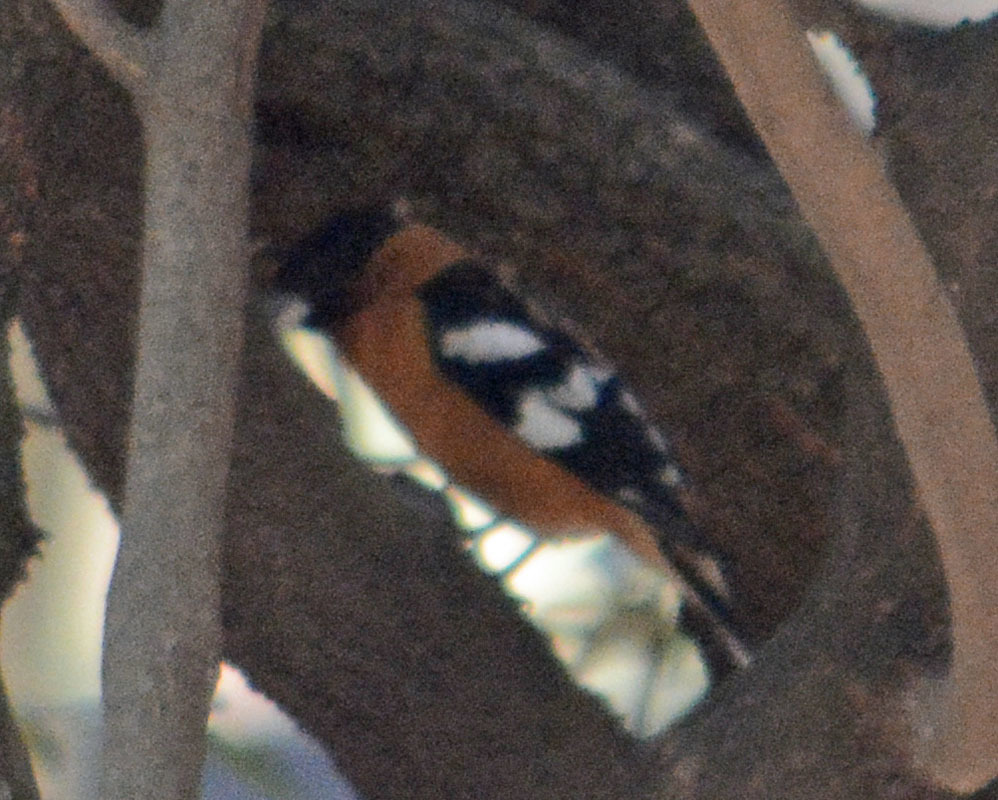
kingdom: Animalia
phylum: Chordata
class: Aves
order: Passeriformes
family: Cardinalidae
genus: Pheucticus
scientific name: Pheucticus melanocephalus
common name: Black-headed grosbeak
